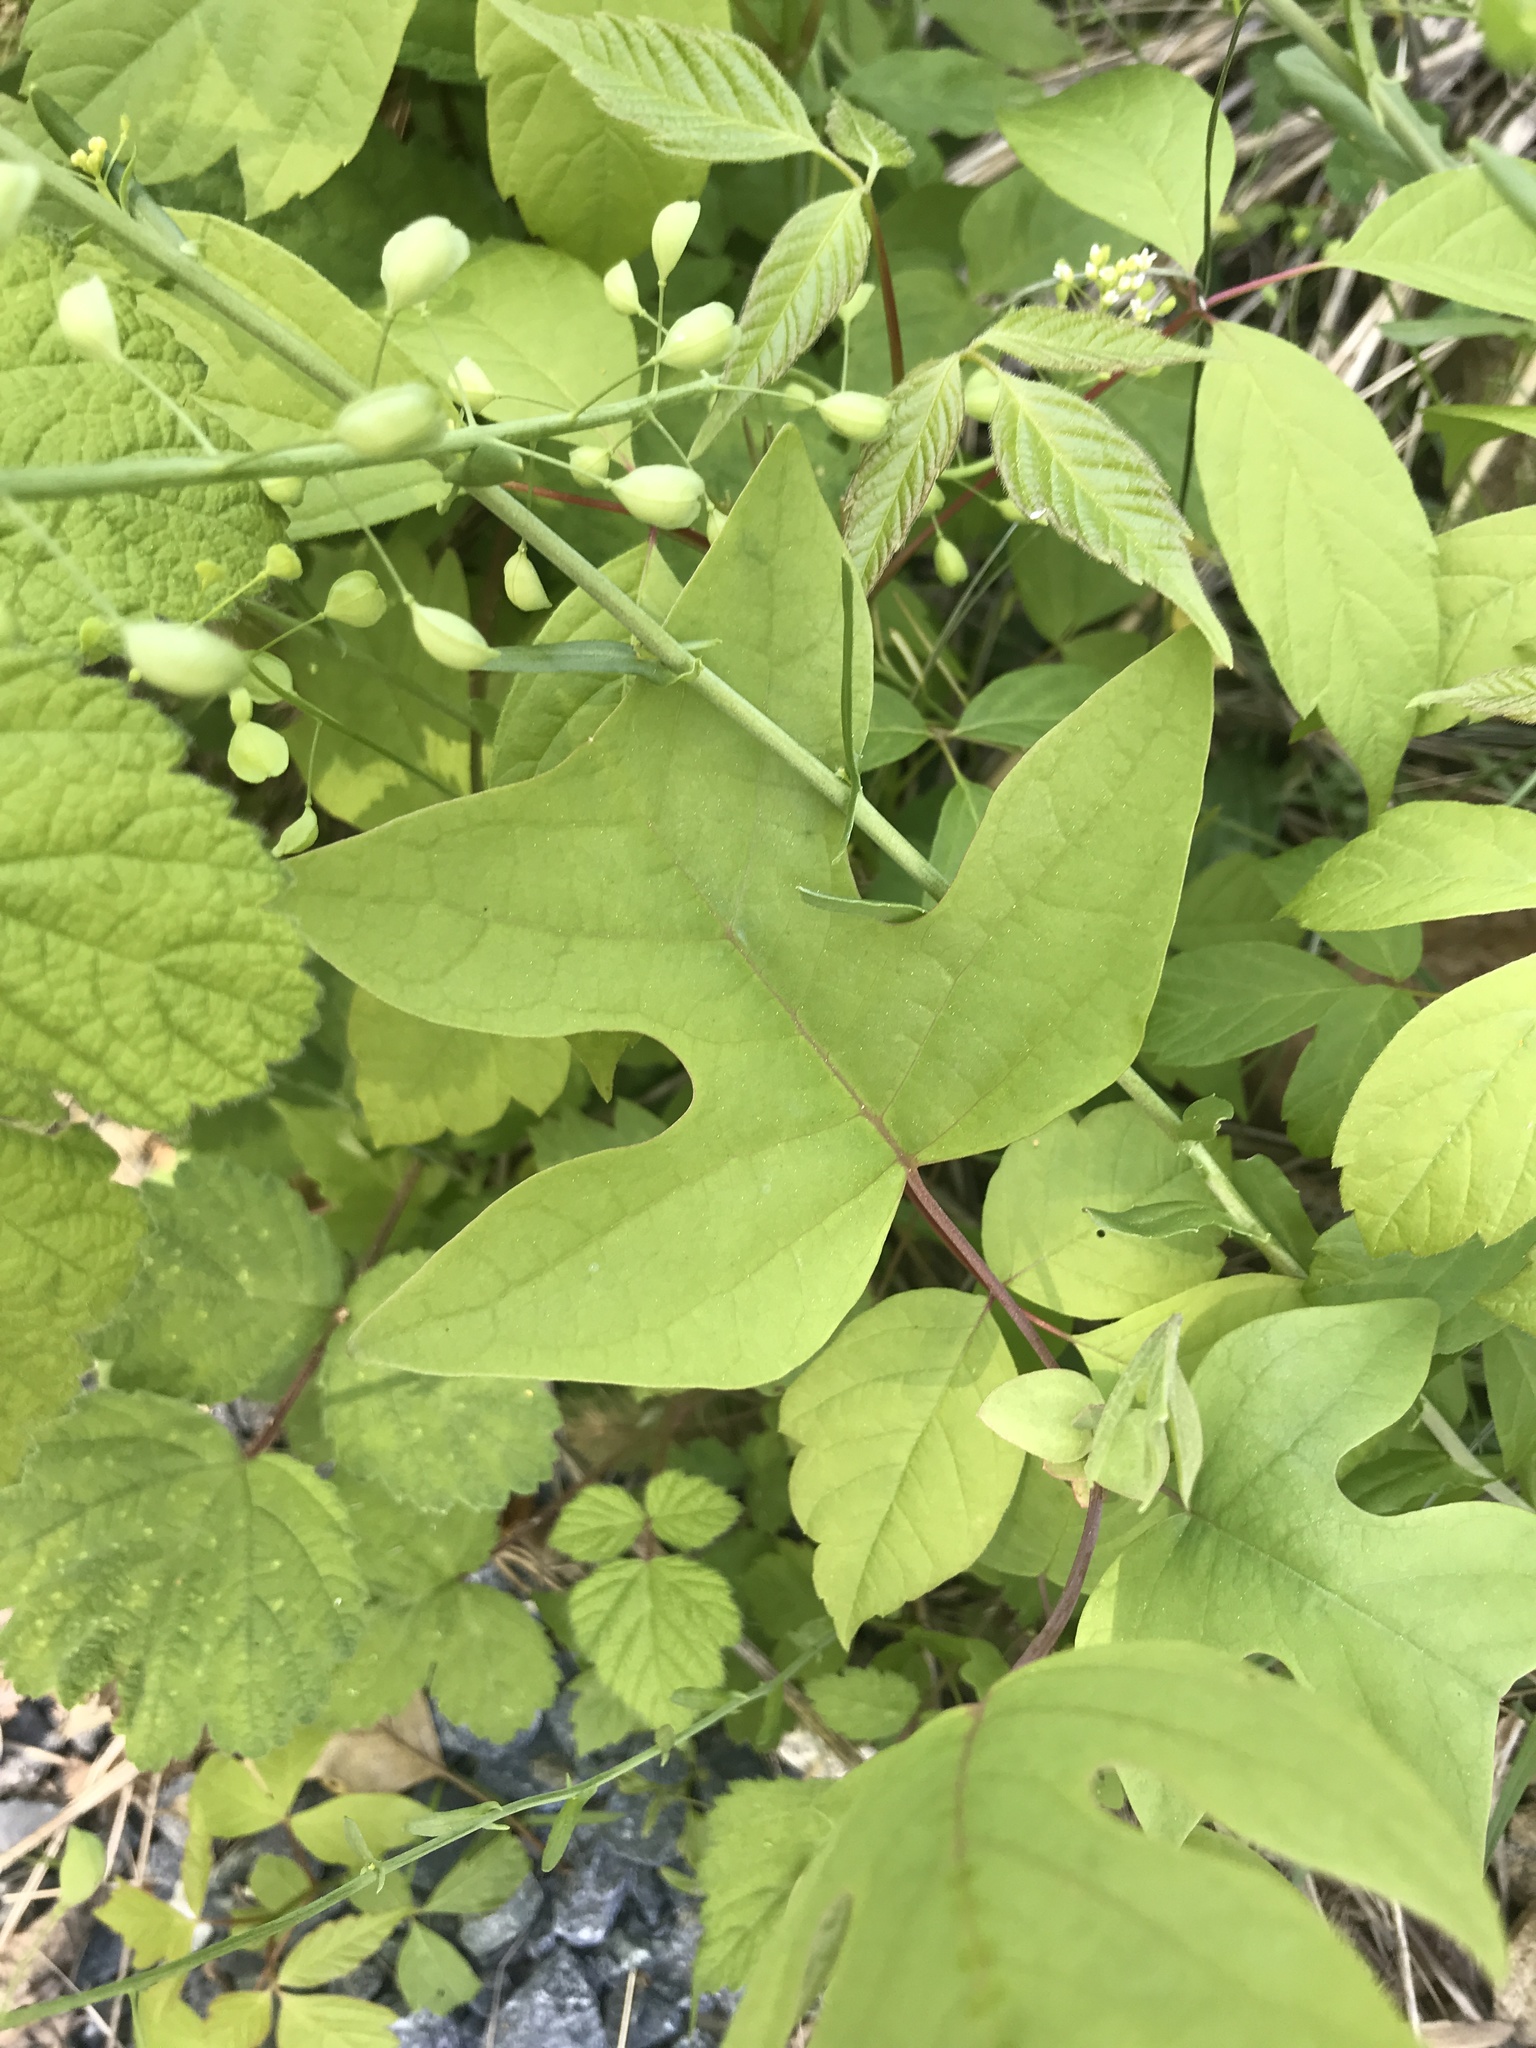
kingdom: Plantae
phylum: Tracheophyta
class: Magnoliopsida
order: Magnoliales
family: Magnoliaceae
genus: Liriodendron
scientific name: Liriodendron tulipifera
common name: Tulip tree
